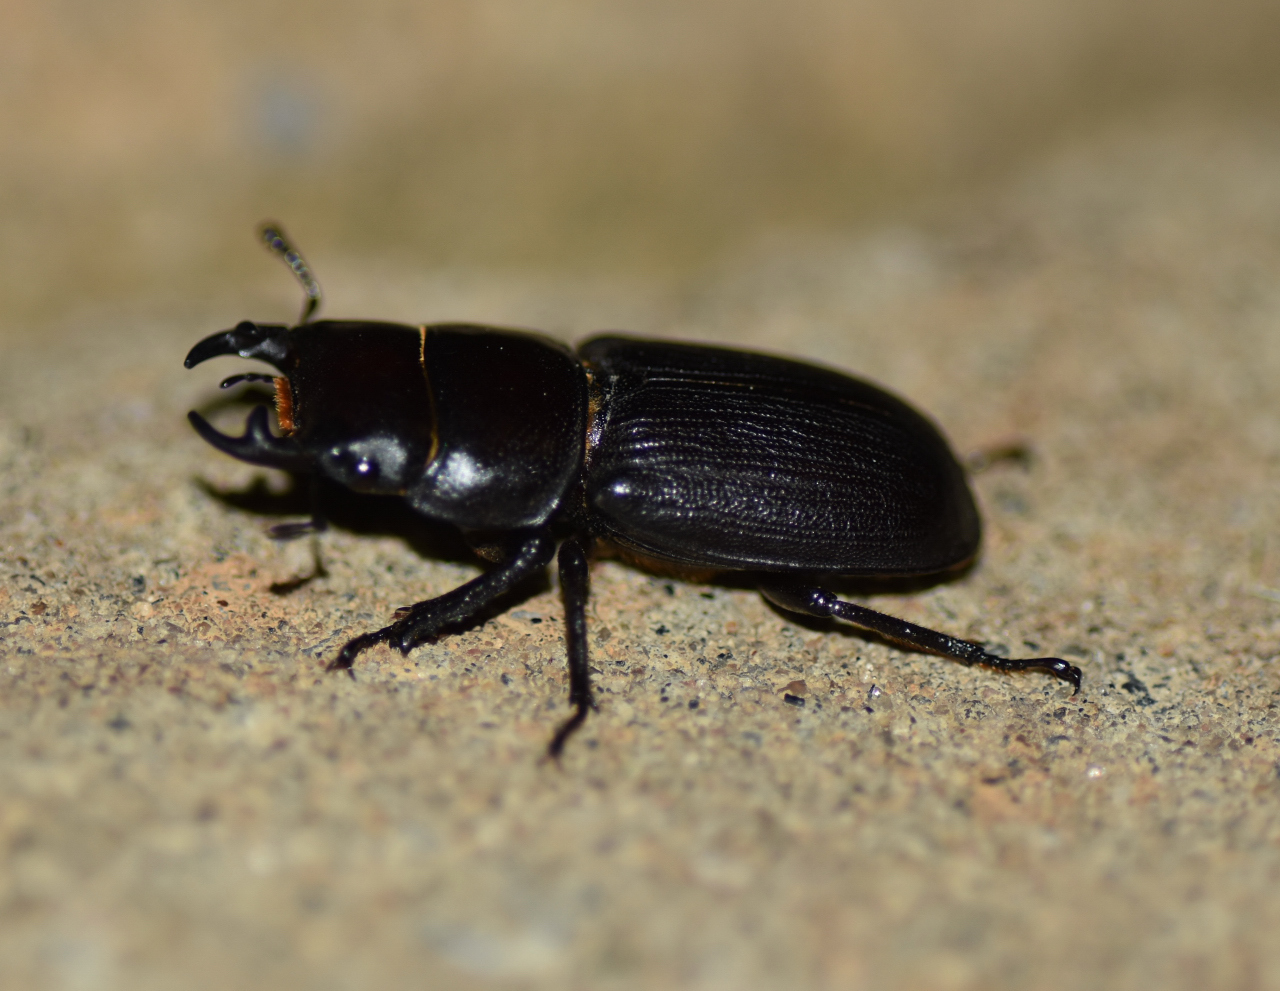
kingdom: Animalia
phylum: Arthropoda
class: Insecta
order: Coleoptera
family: Lucanidae
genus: Dorcus
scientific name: Dorcus parallelus
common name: Antelope beetle
